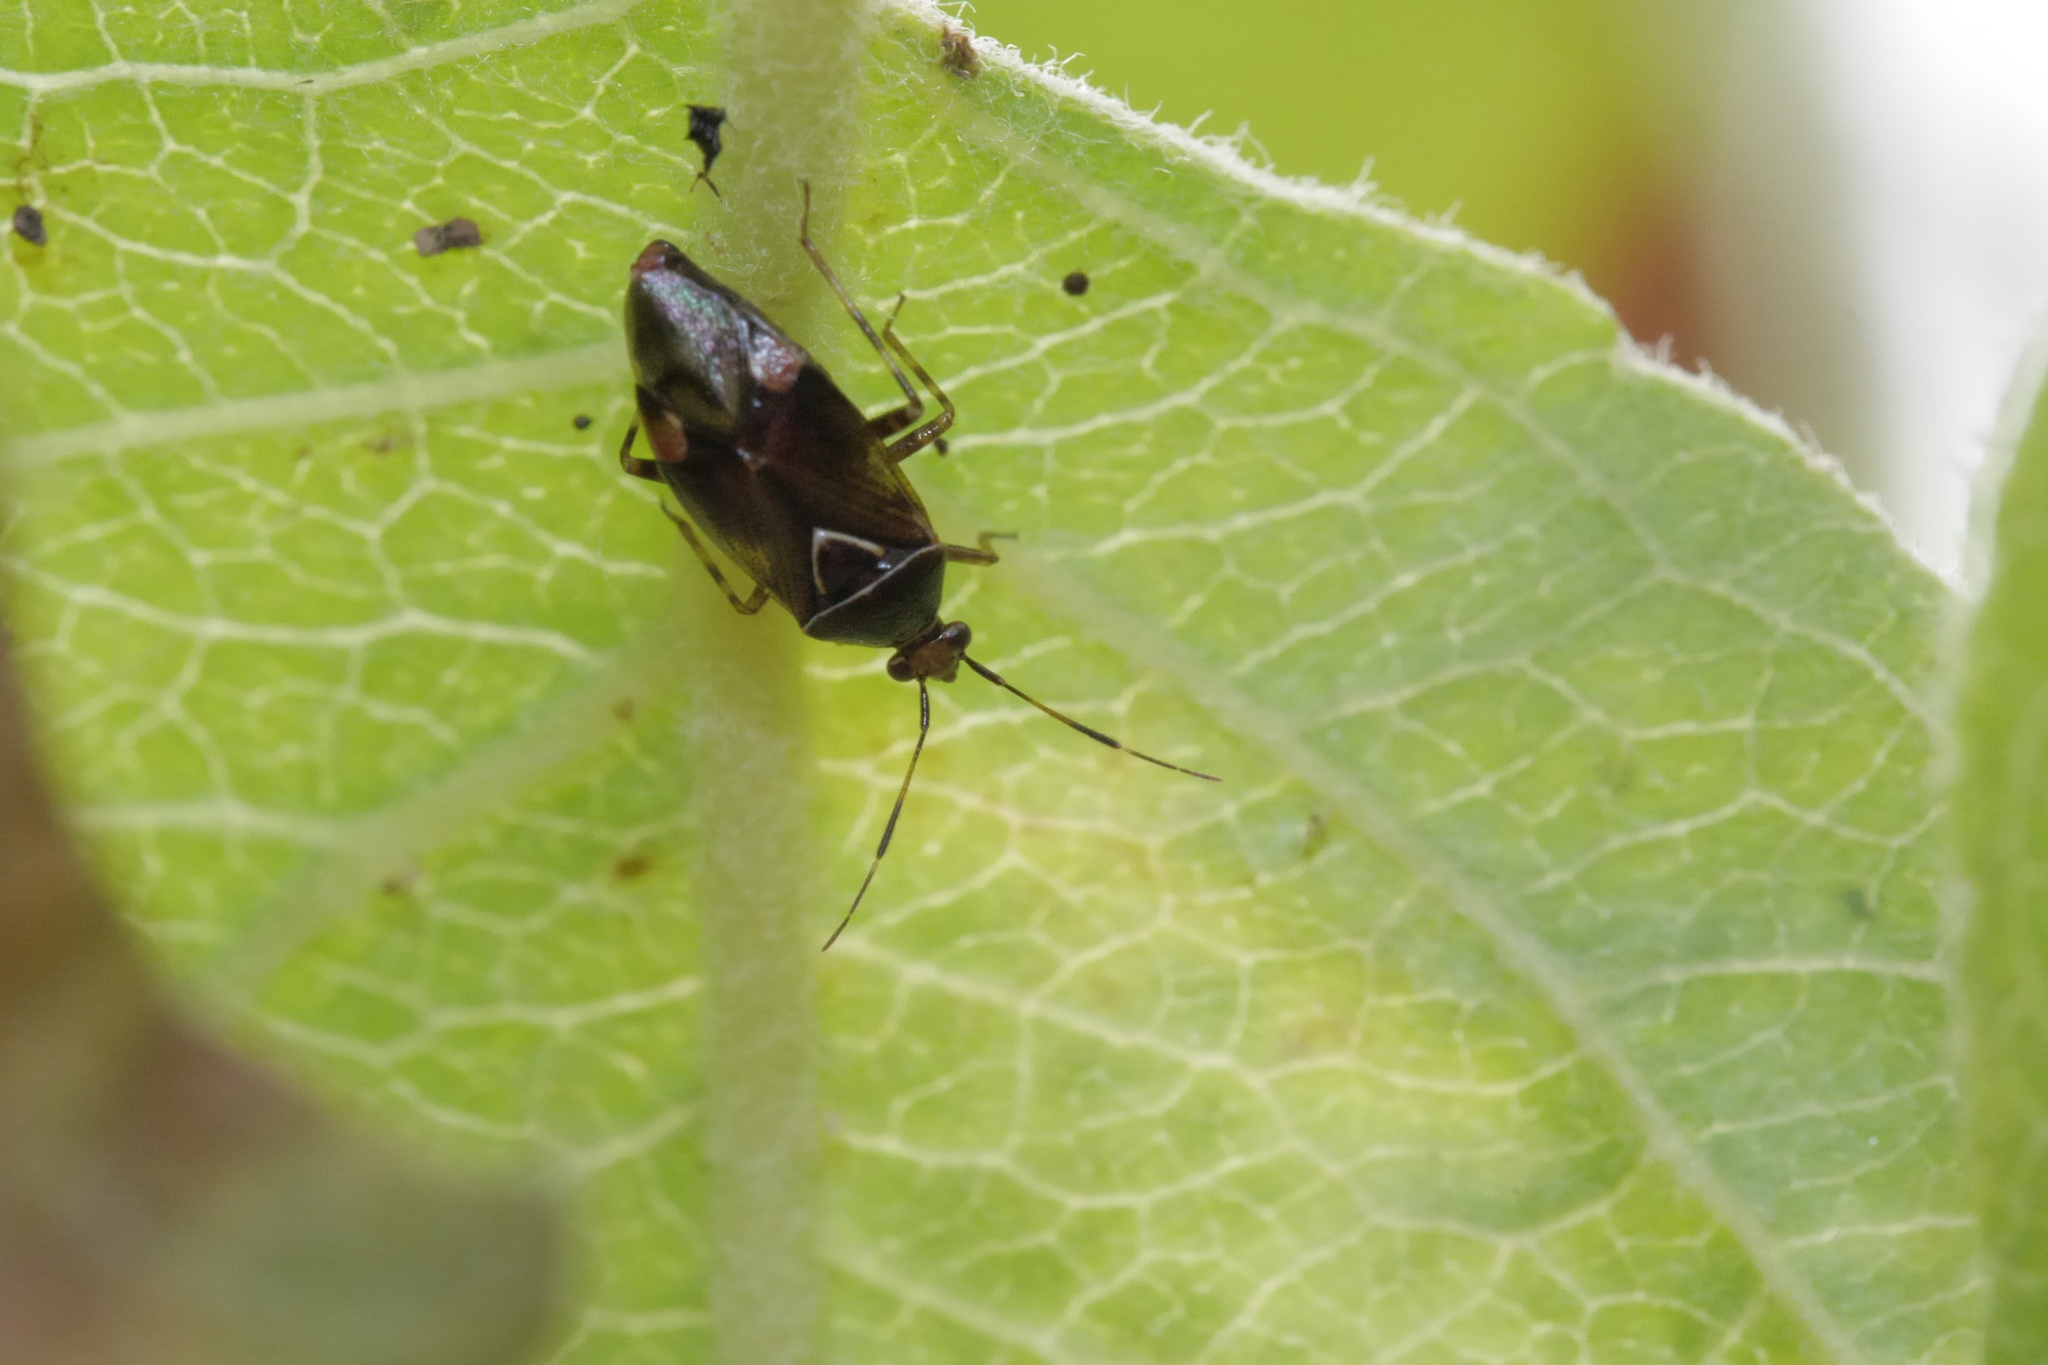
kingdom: Animalia
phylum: Arthropoda
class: Insecta
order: Hemiptera
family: Miridae
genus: Deraeocoris
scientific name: Deraeocoris flavilinea
